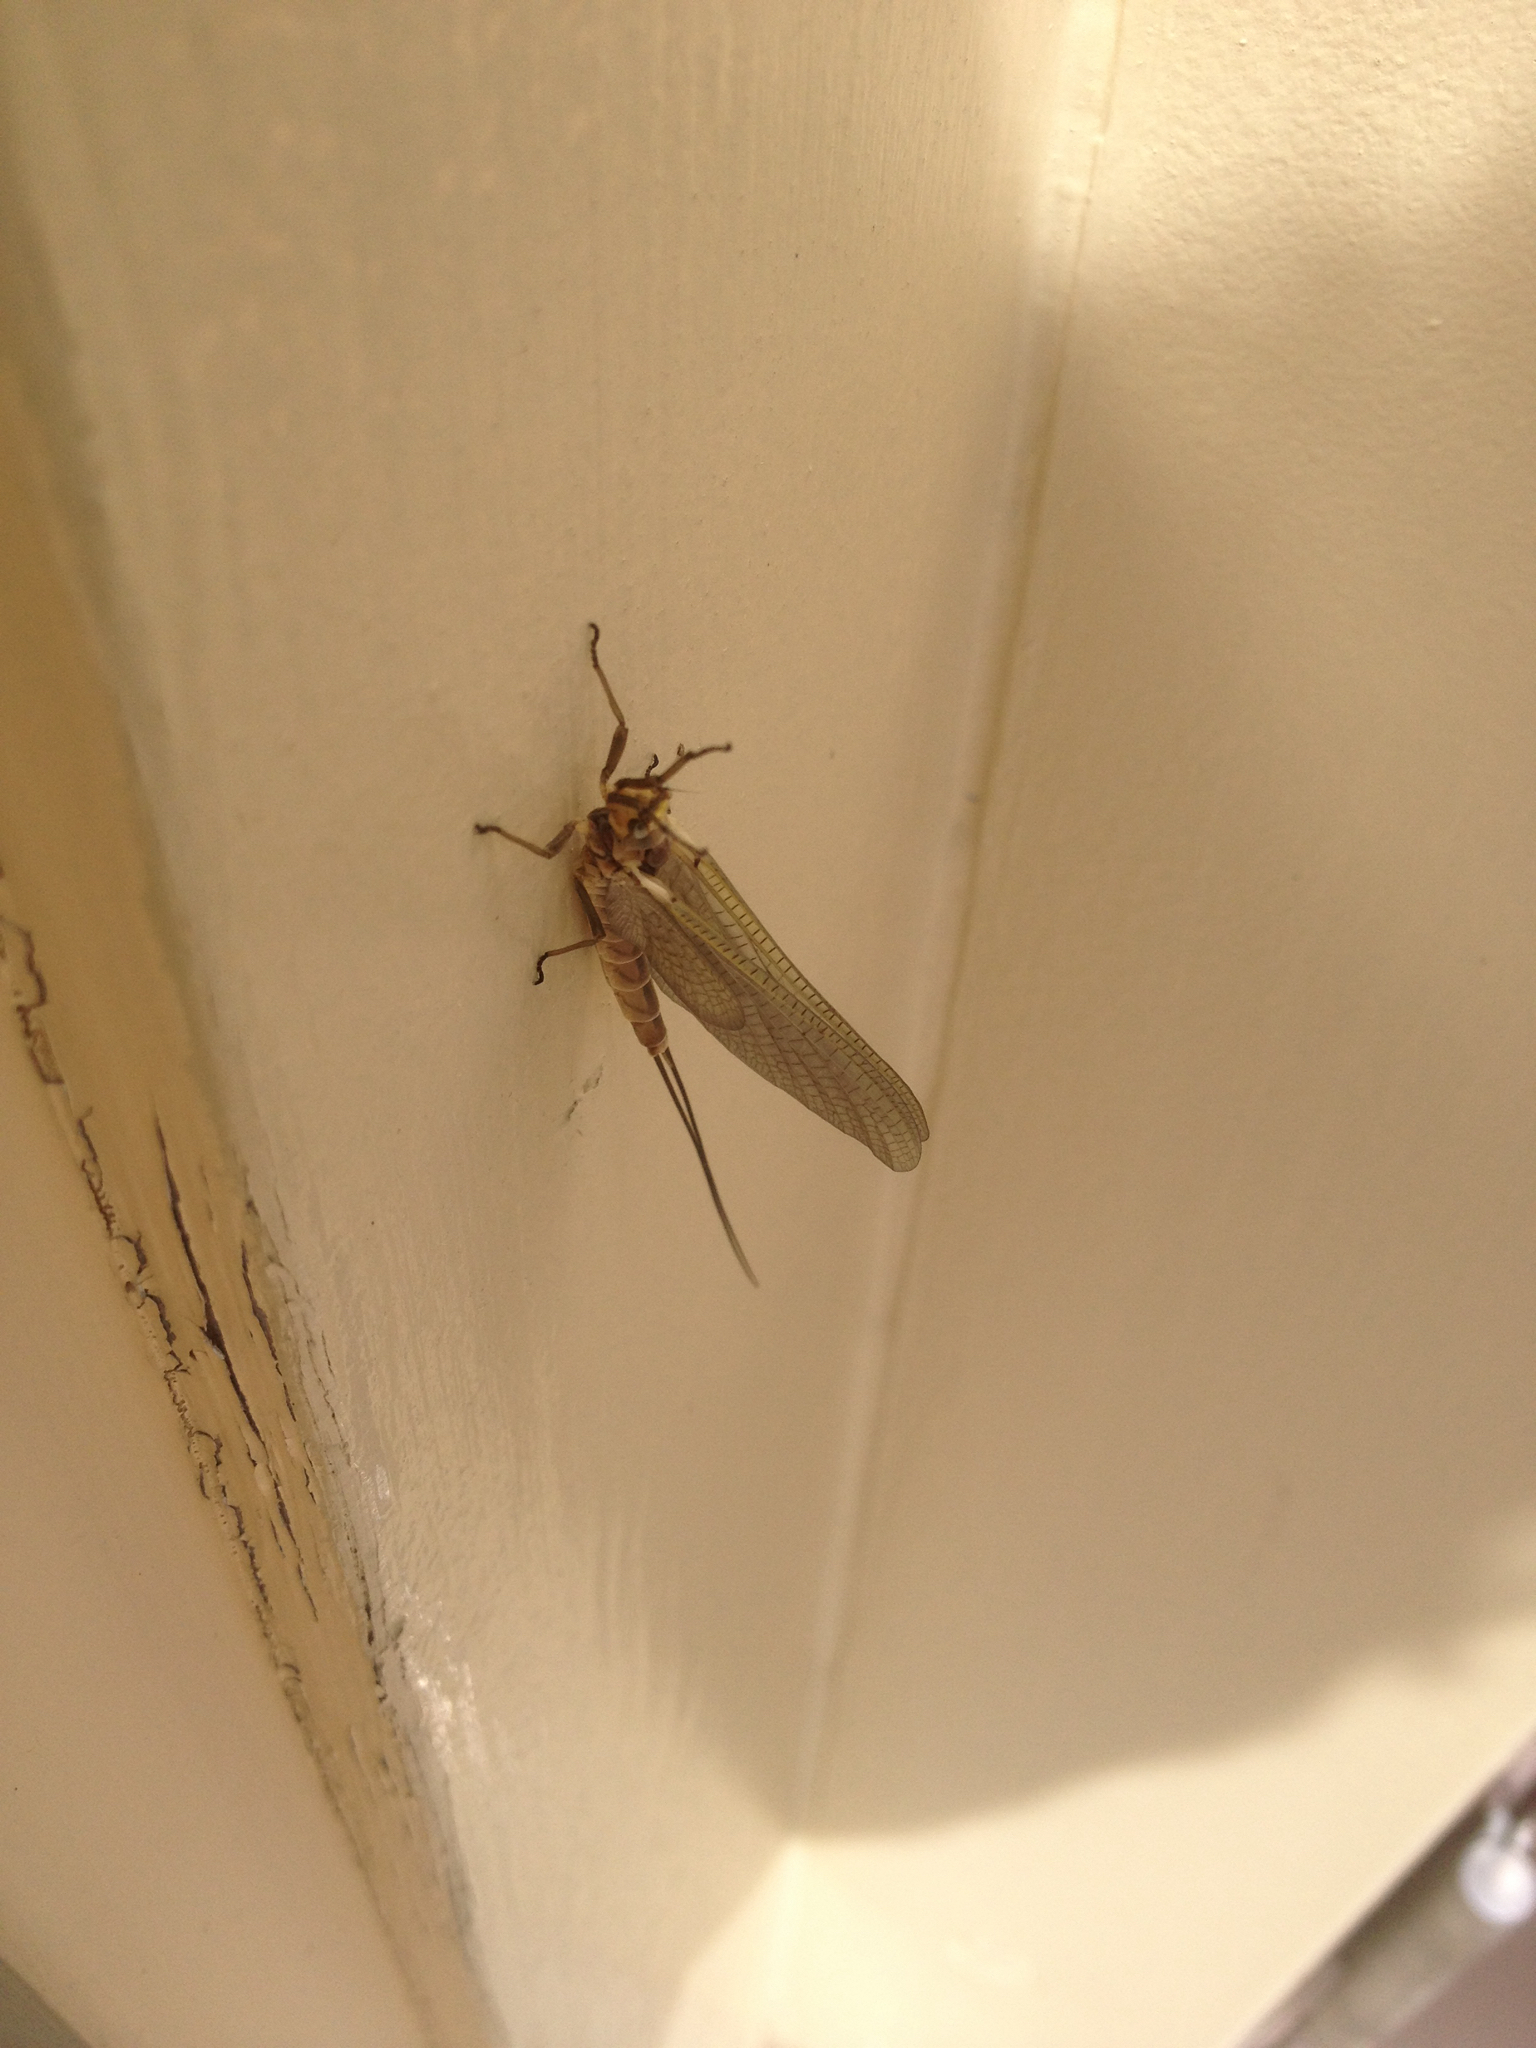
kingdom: Animalia
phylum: Arthropoda
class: Insecta
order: Ephemeroptera
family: Ephemeridae
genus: Hexagenia
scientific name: Hexagenia limbata
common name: Giant mayfly
